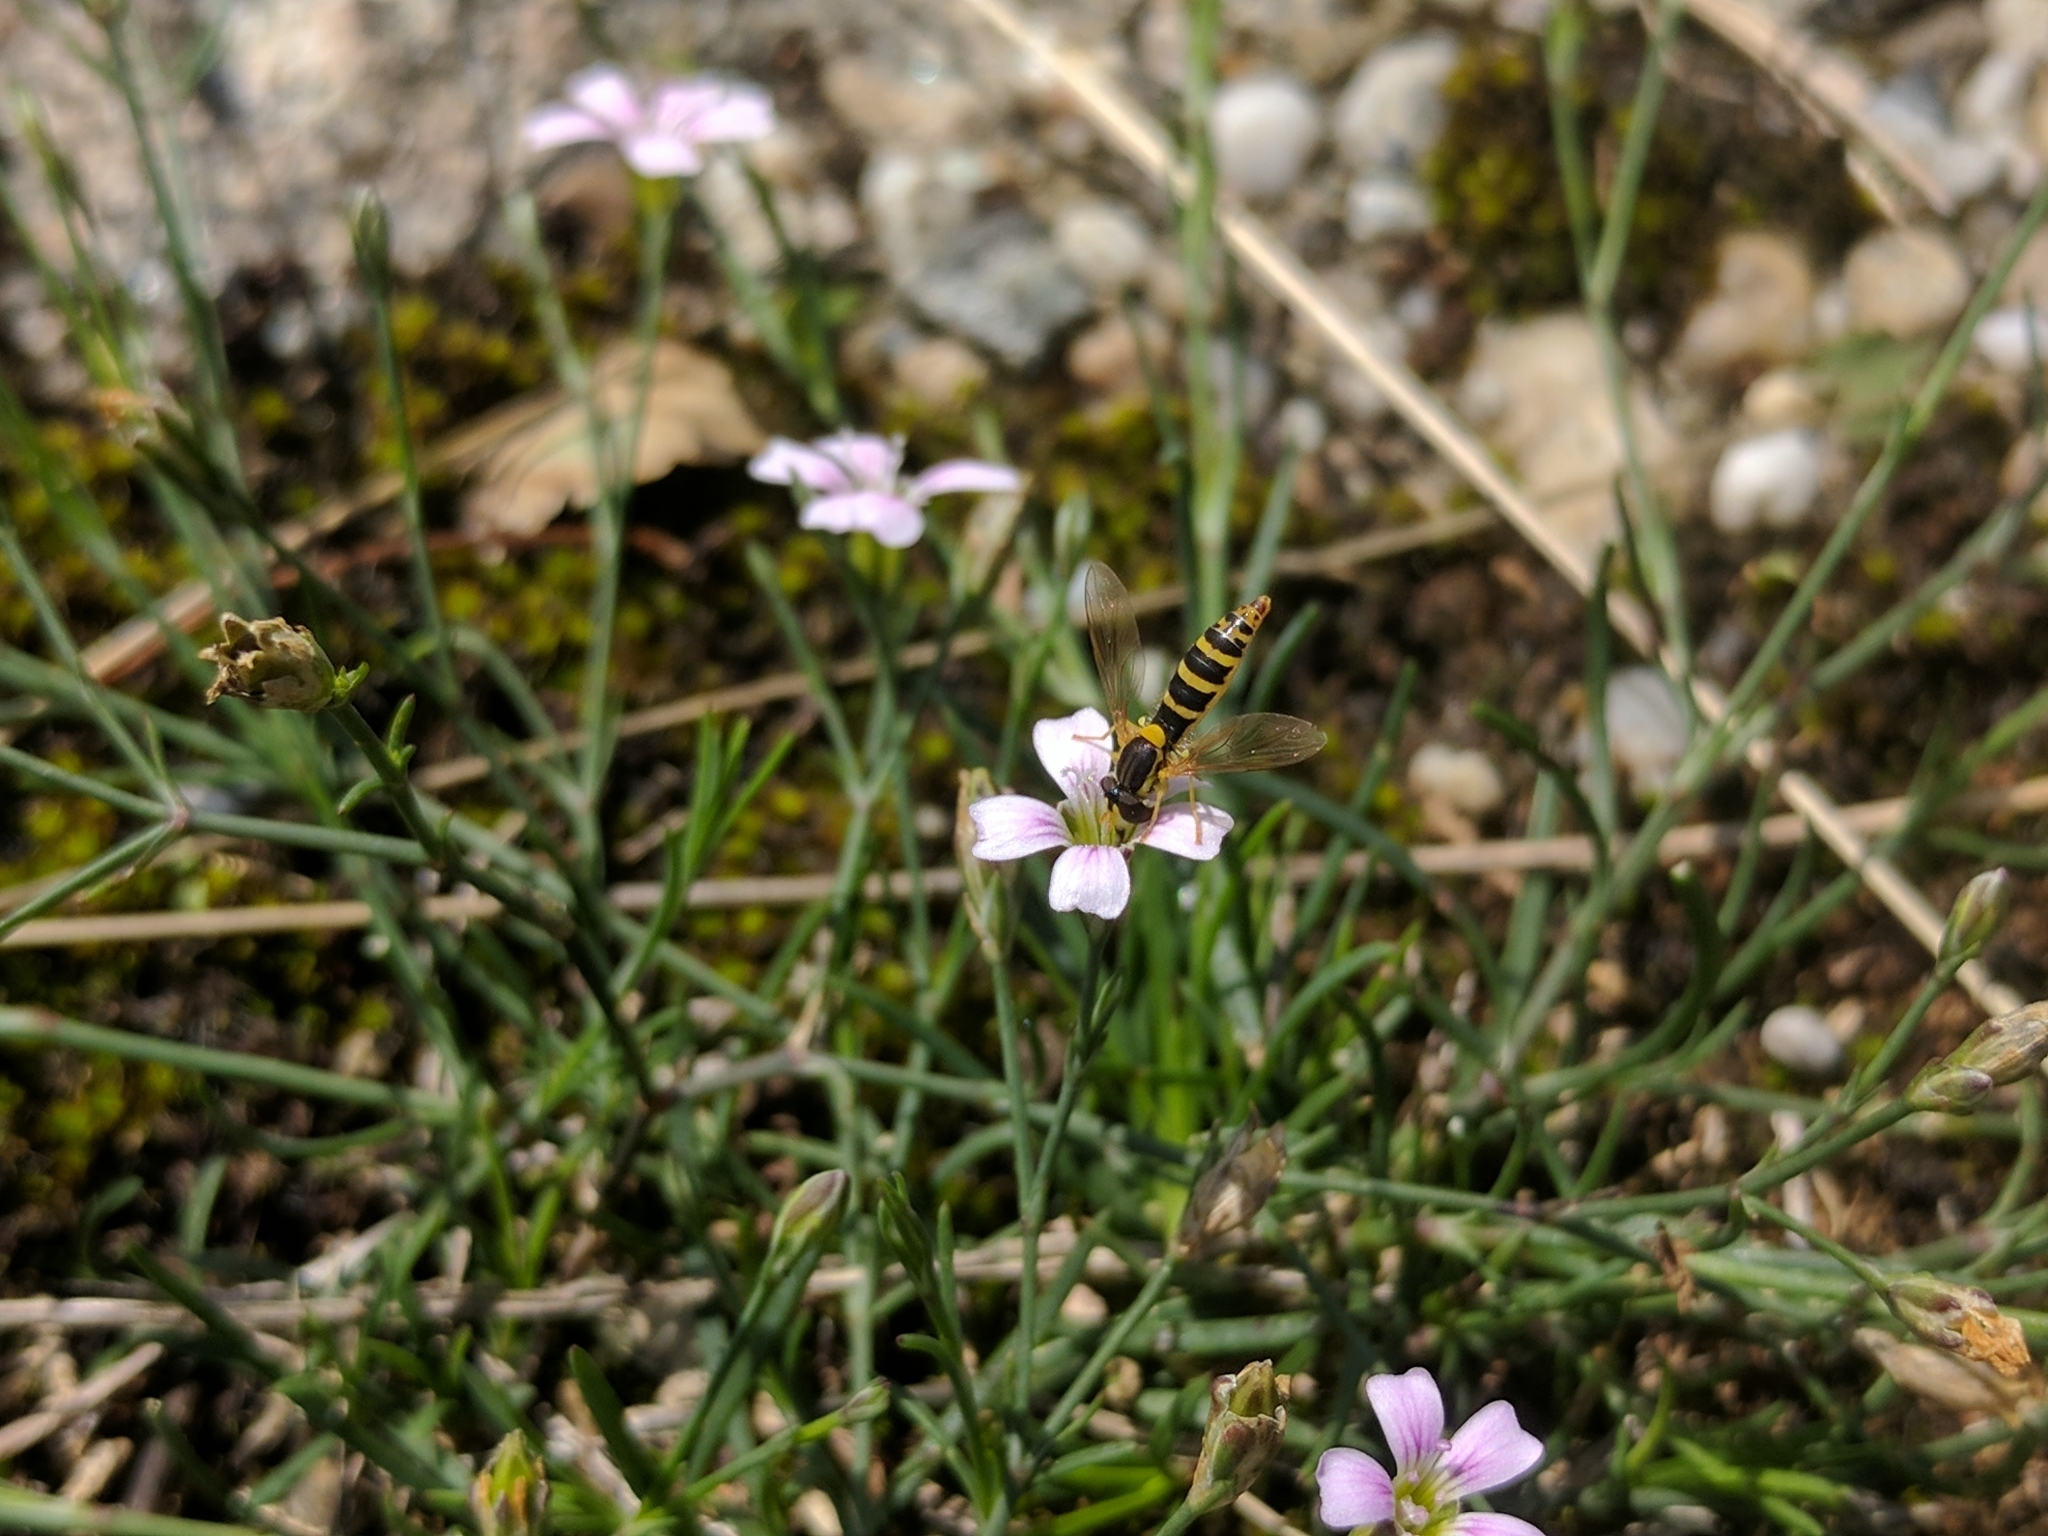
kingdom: Animalia
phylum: Arthropoda
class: Insecta
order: Diptera
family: Syrphidae
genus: Sphaerophoria
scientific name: Sphaerophoria
